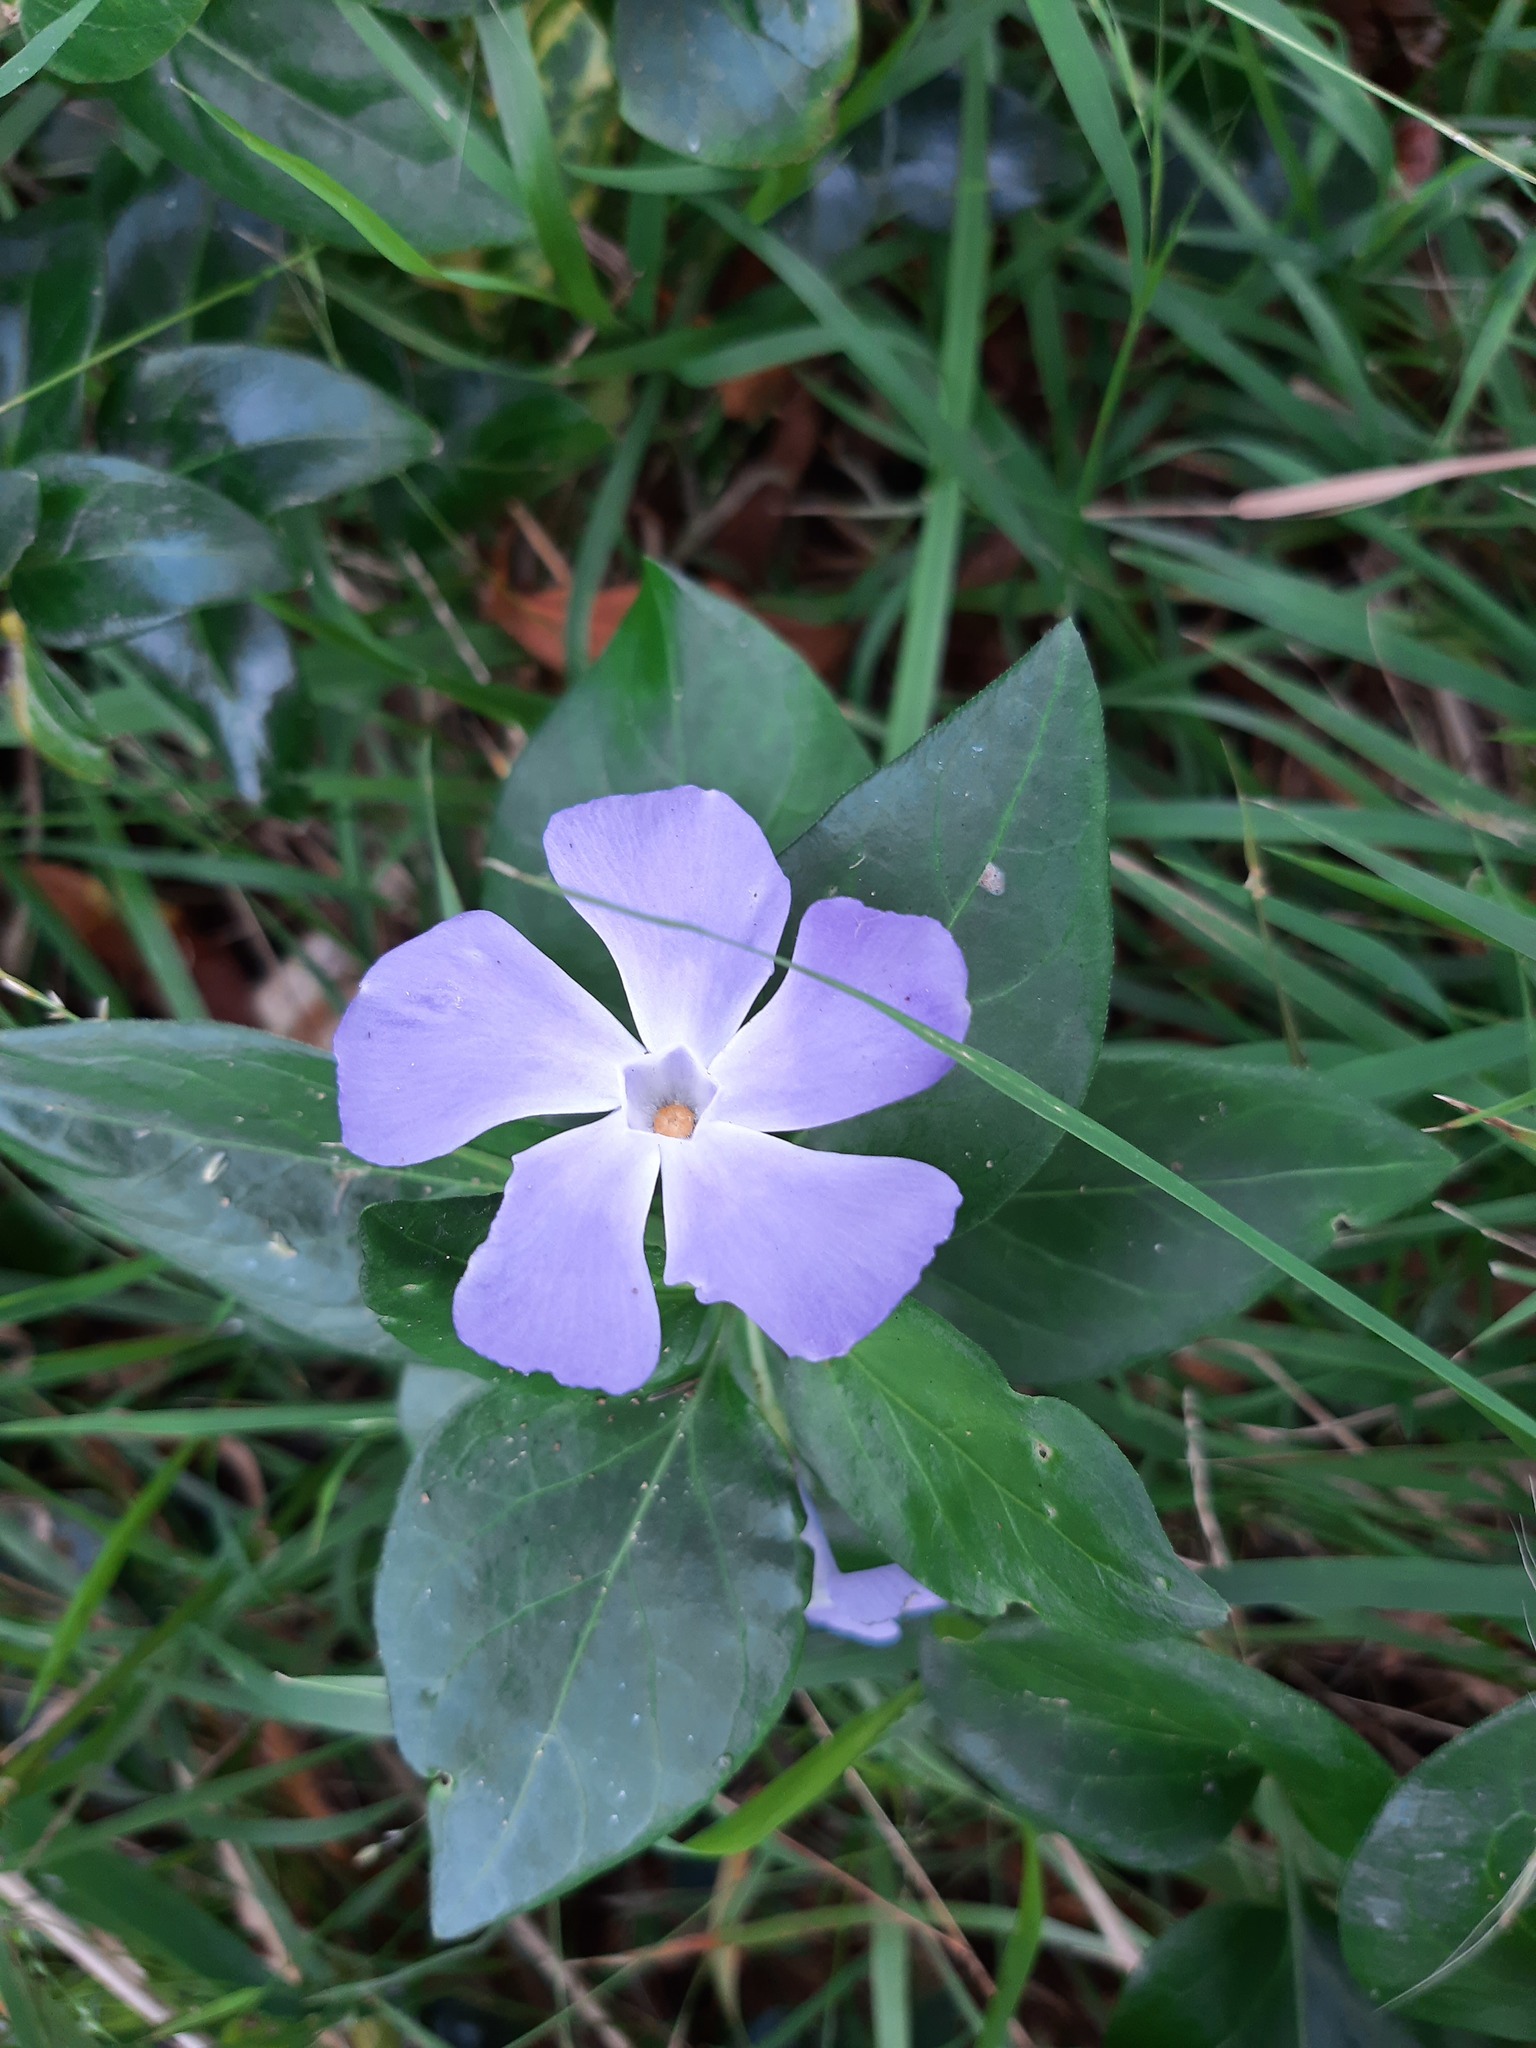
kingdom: Plantae
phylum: Tracheophyta
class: Magnoliopsida
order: Gentianales
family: Apocynaceae
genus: Vinca
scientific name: Vinca major
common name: Greater periwinkle
